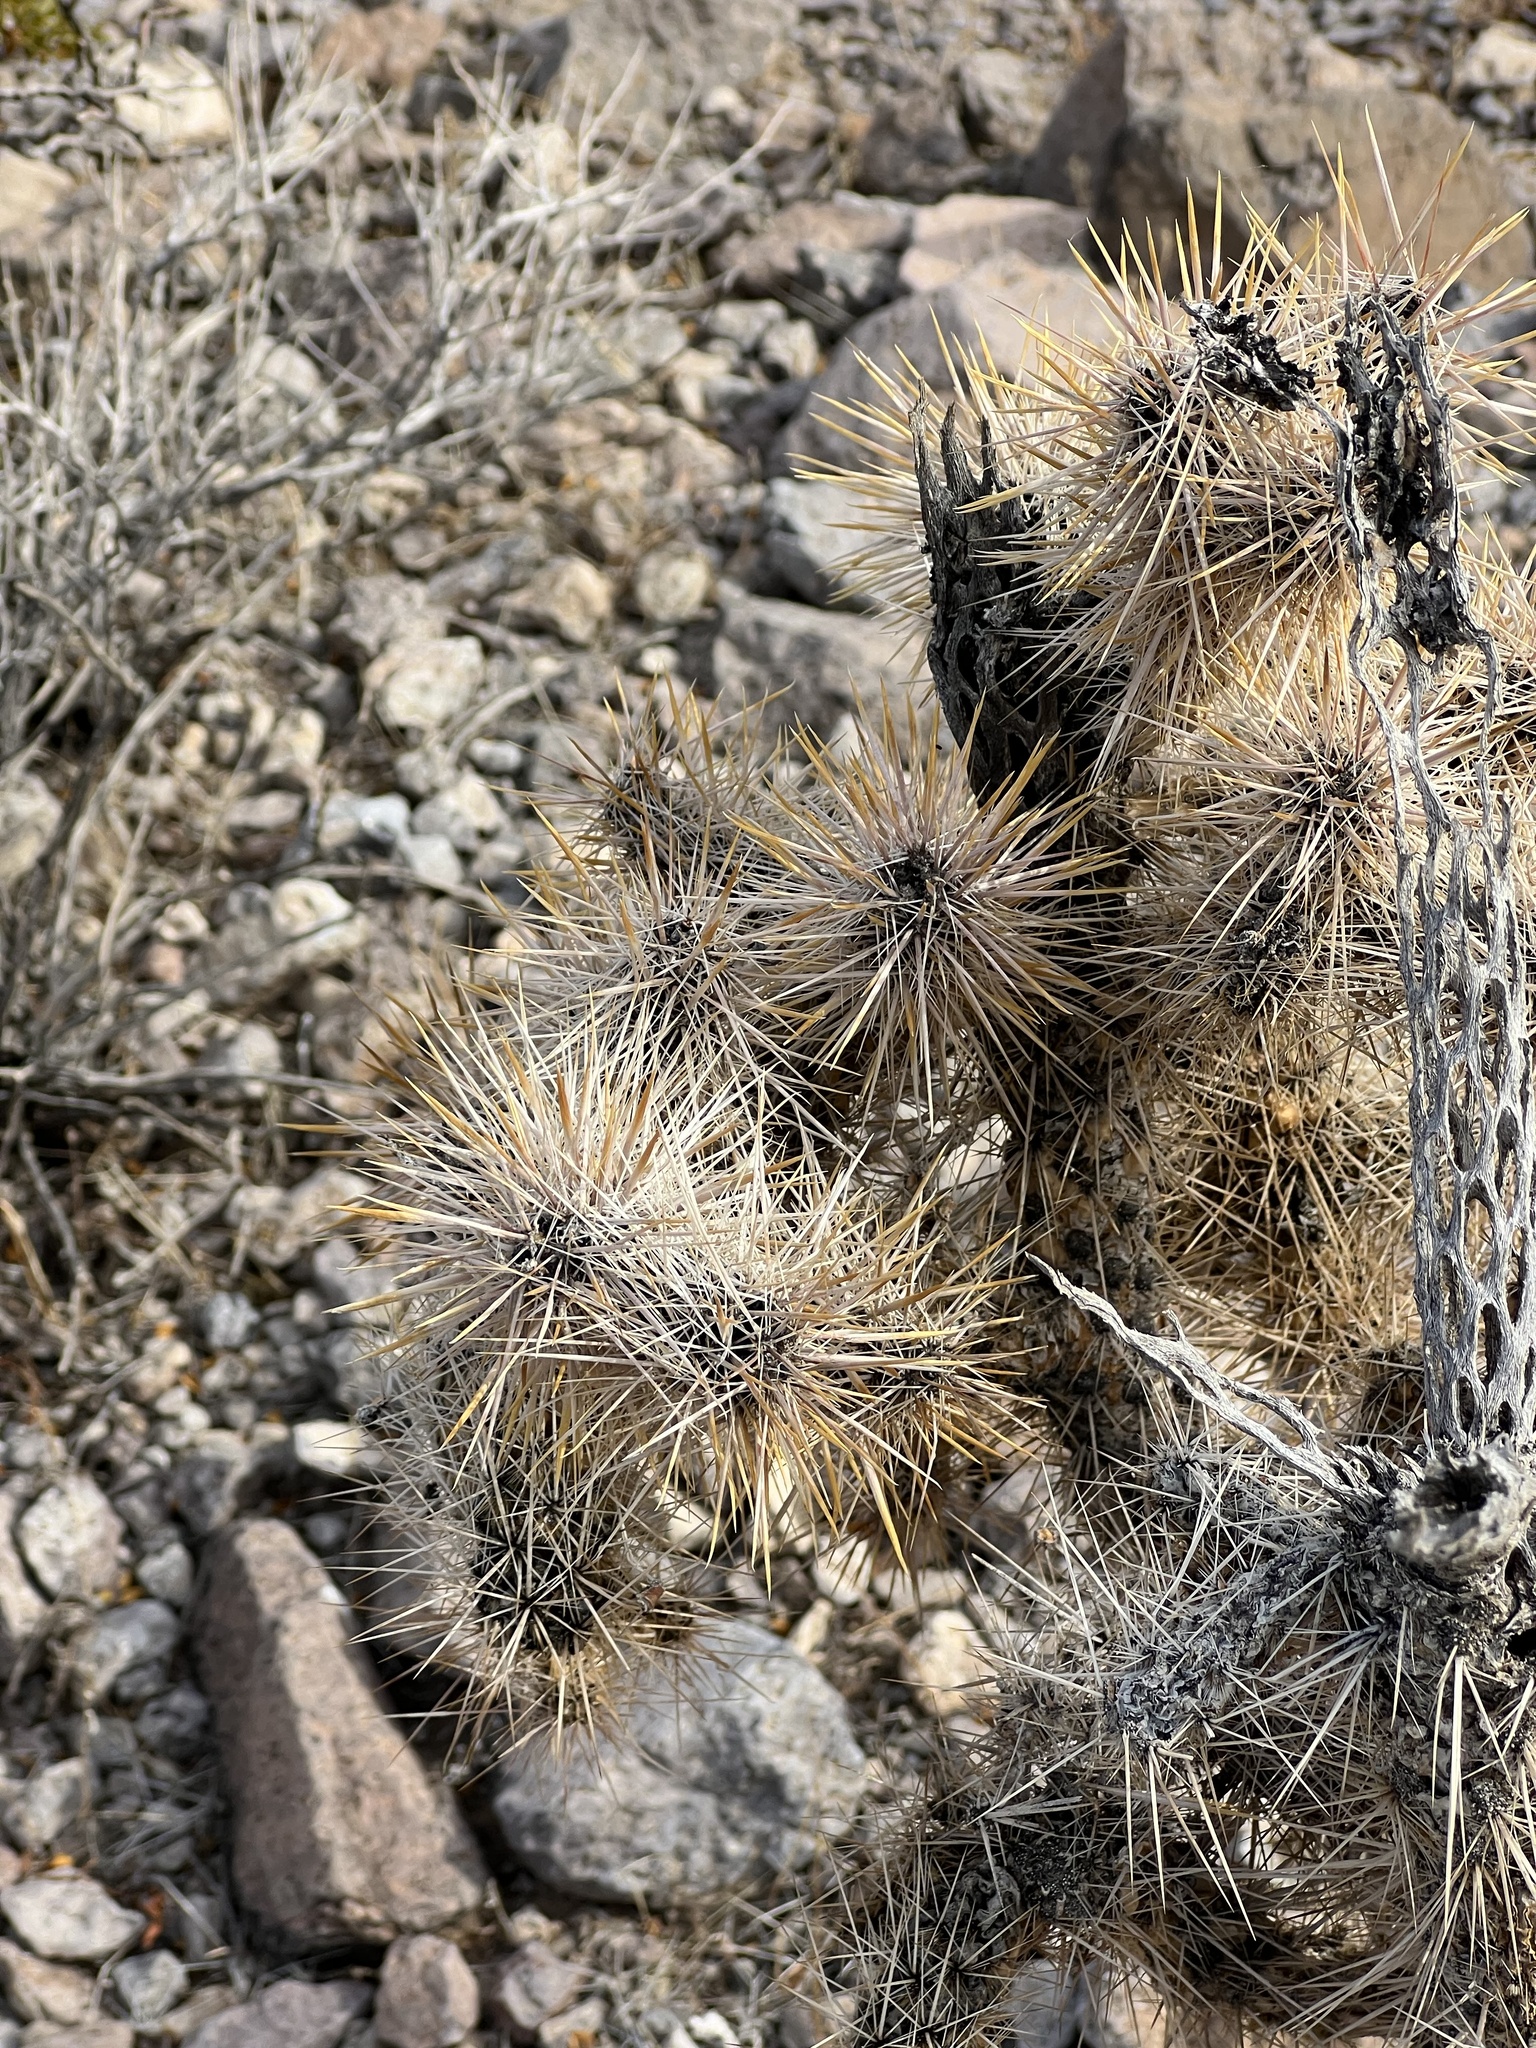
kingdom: Plantae
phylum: Tracheophyta
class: Magnoliopsida
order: Caryophyllales
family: Cactaceae
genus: Cylindropuntia
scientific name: Cylindropuntia echinocarpa
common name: Ground cholla
